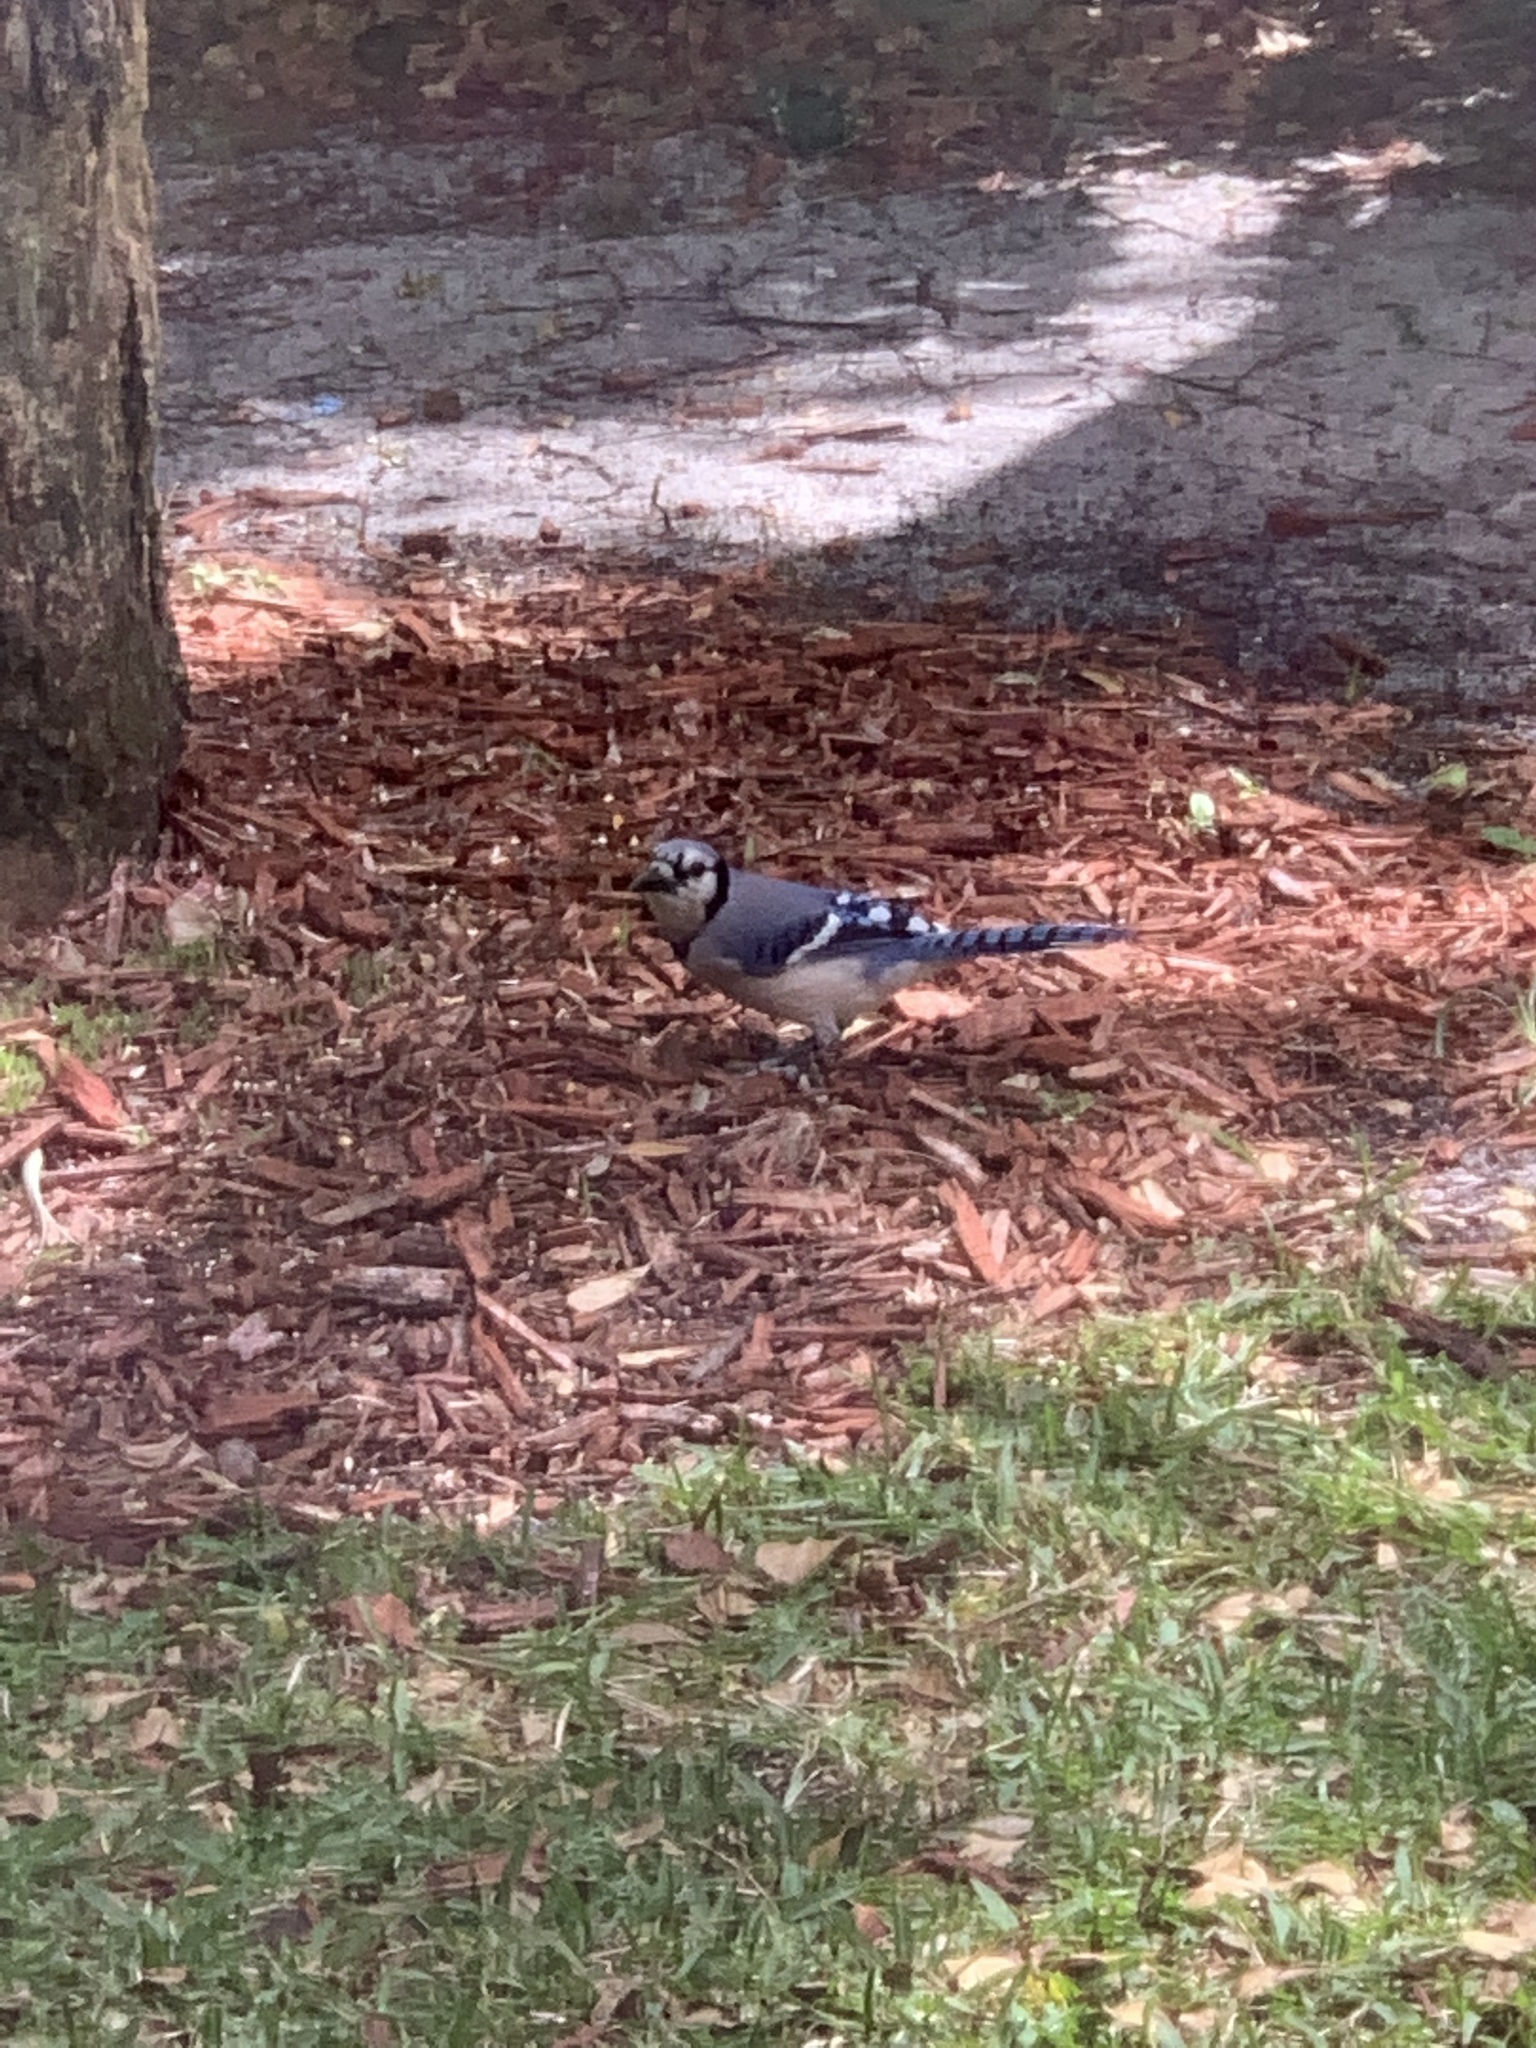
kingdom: Animalia
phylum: Chordata
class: Aves
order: Passeriformes
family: Corvidae
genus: Cyanocitta
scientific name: Cyanocitta cristata
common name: Blue jay
